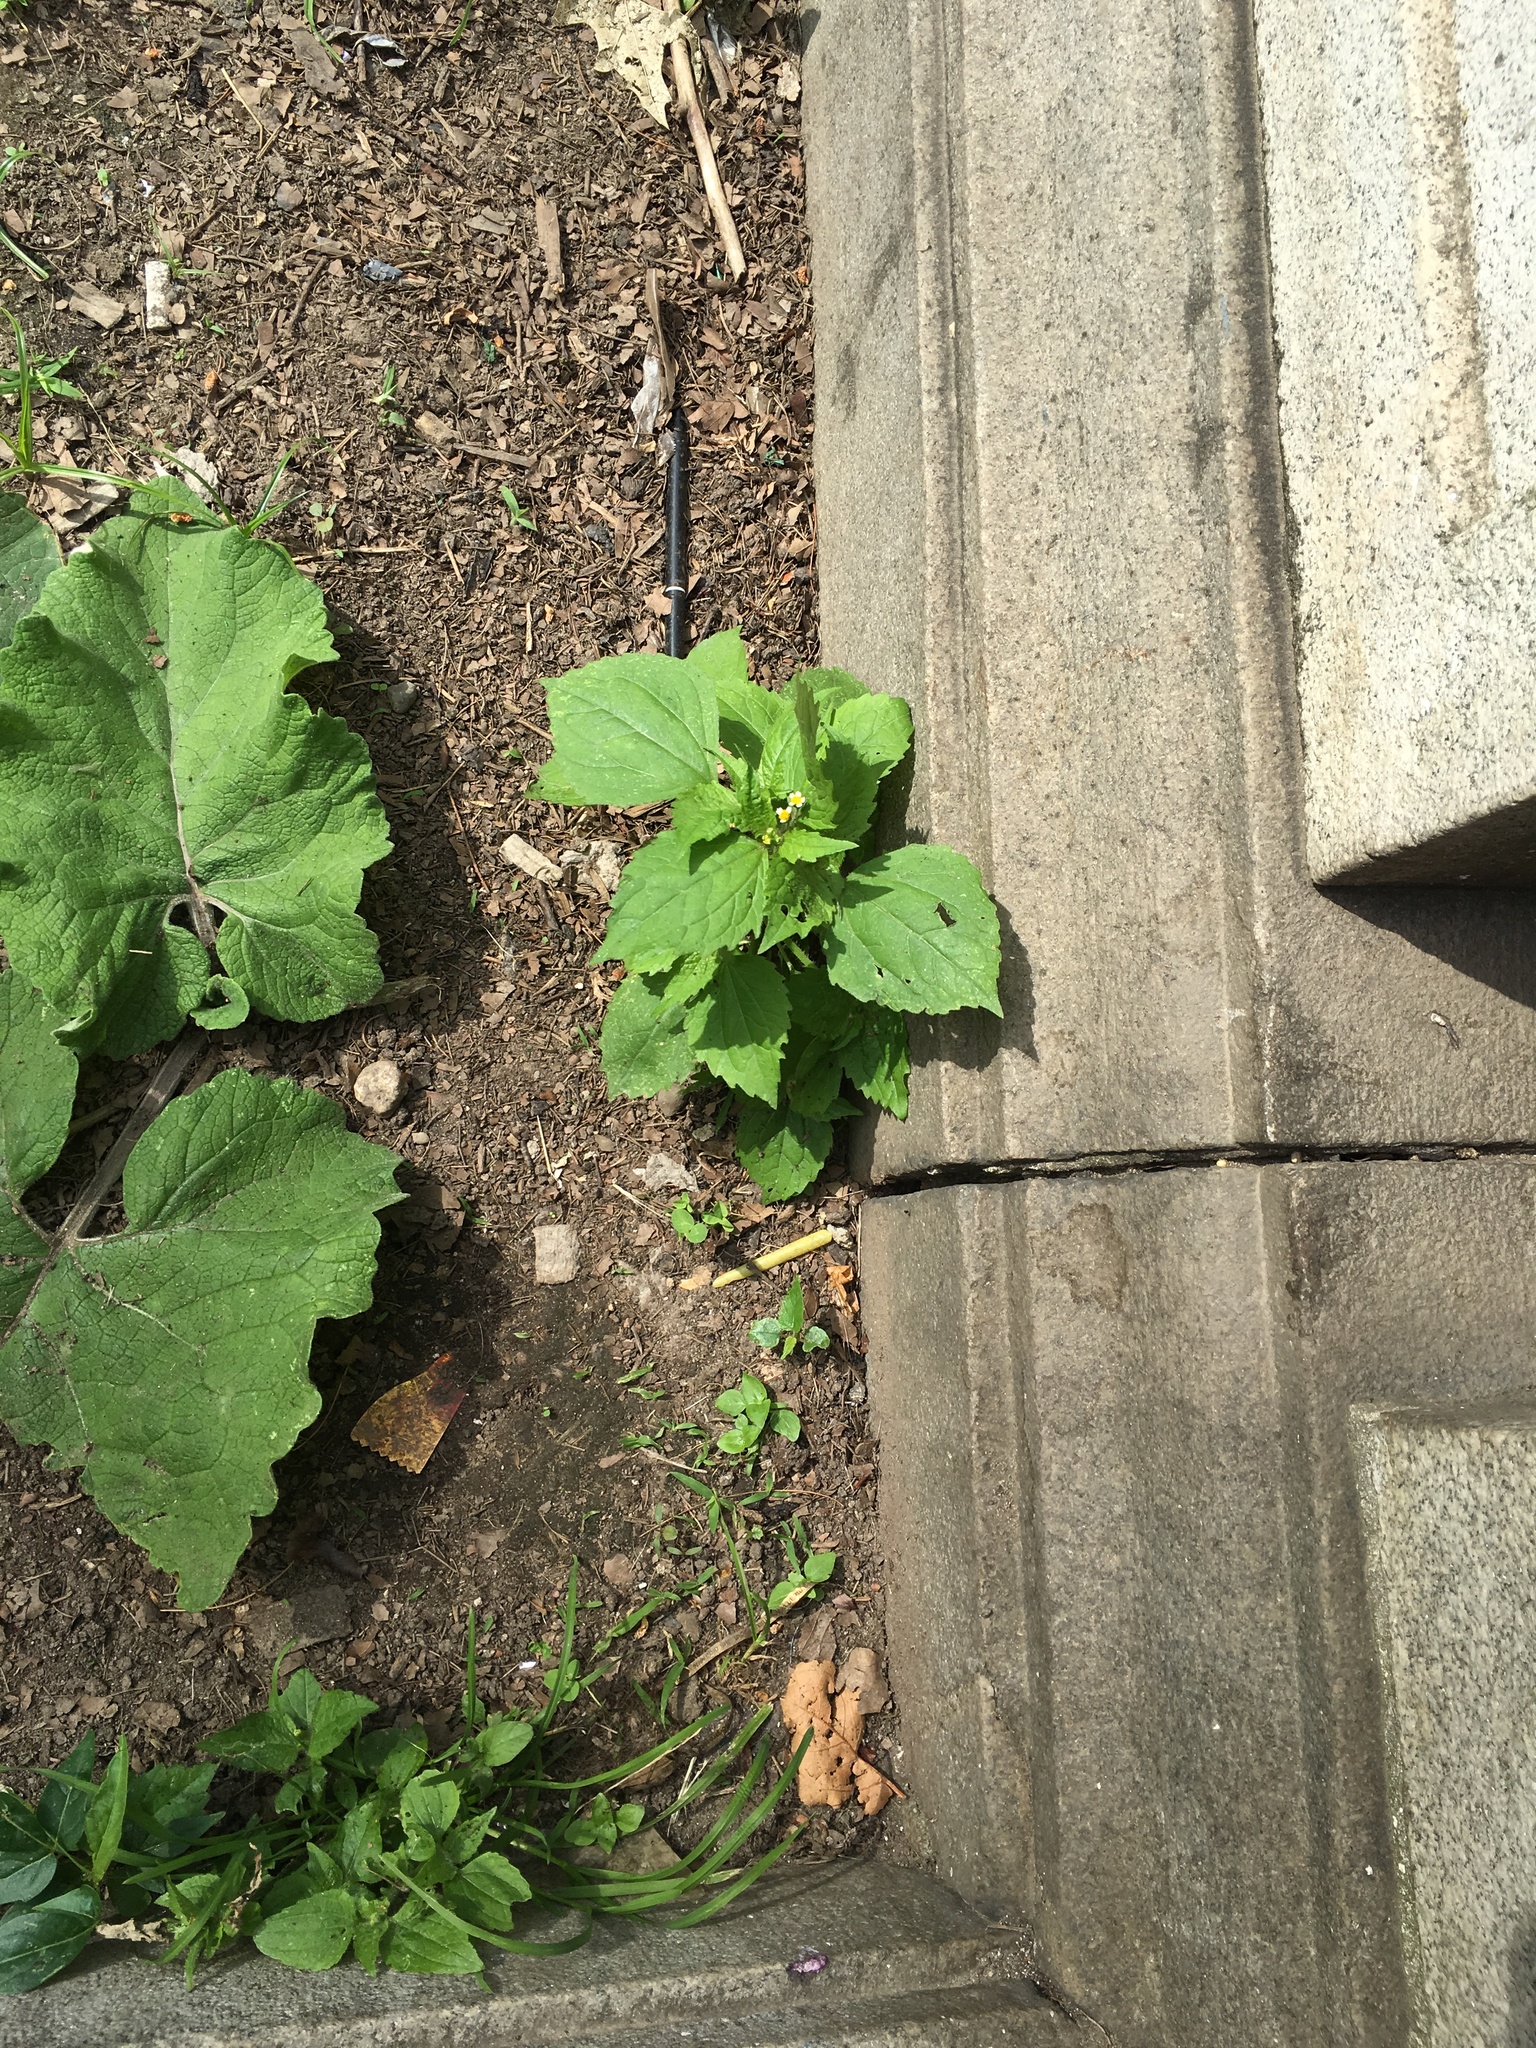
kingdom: Plantae
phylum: Tracheophyta
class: Magnoliopsida
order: Asterales
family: Asteraceae
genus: Galinsoga
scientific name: Galinsoga parviflora
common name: Gallant soldier
